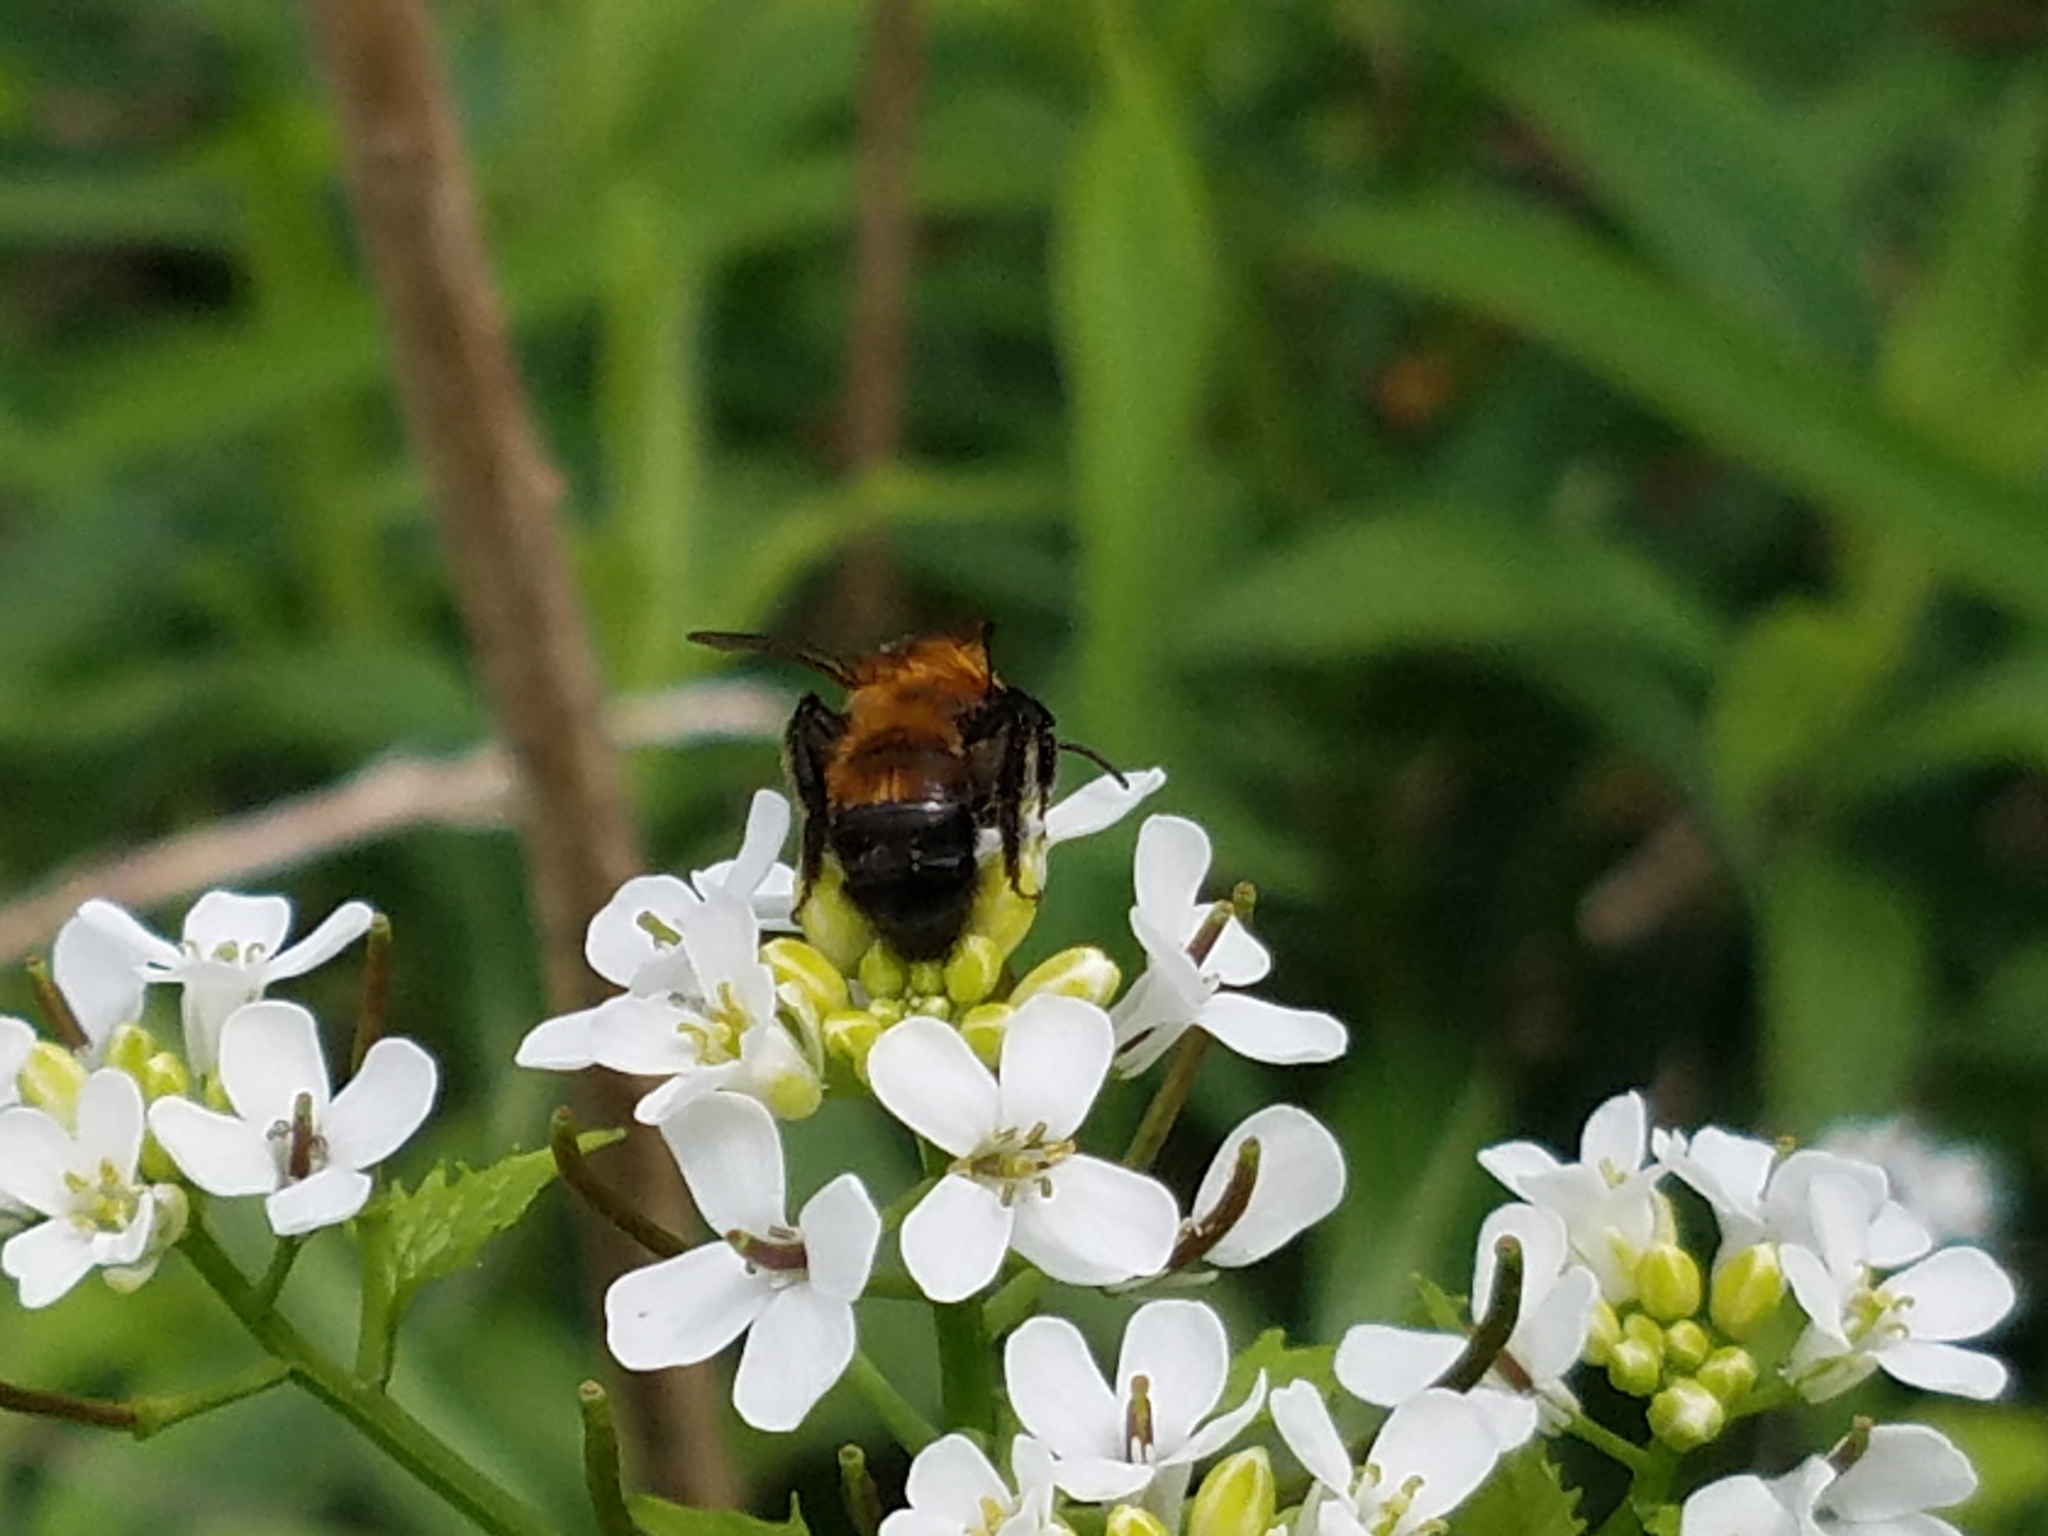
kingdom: Animalia
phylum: Arthropoda
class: Insecta
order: Hymenoptera
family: Andrenidae
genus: Andrena
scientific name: Andrena milwaukeensis
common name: Milwaukee mining bee
